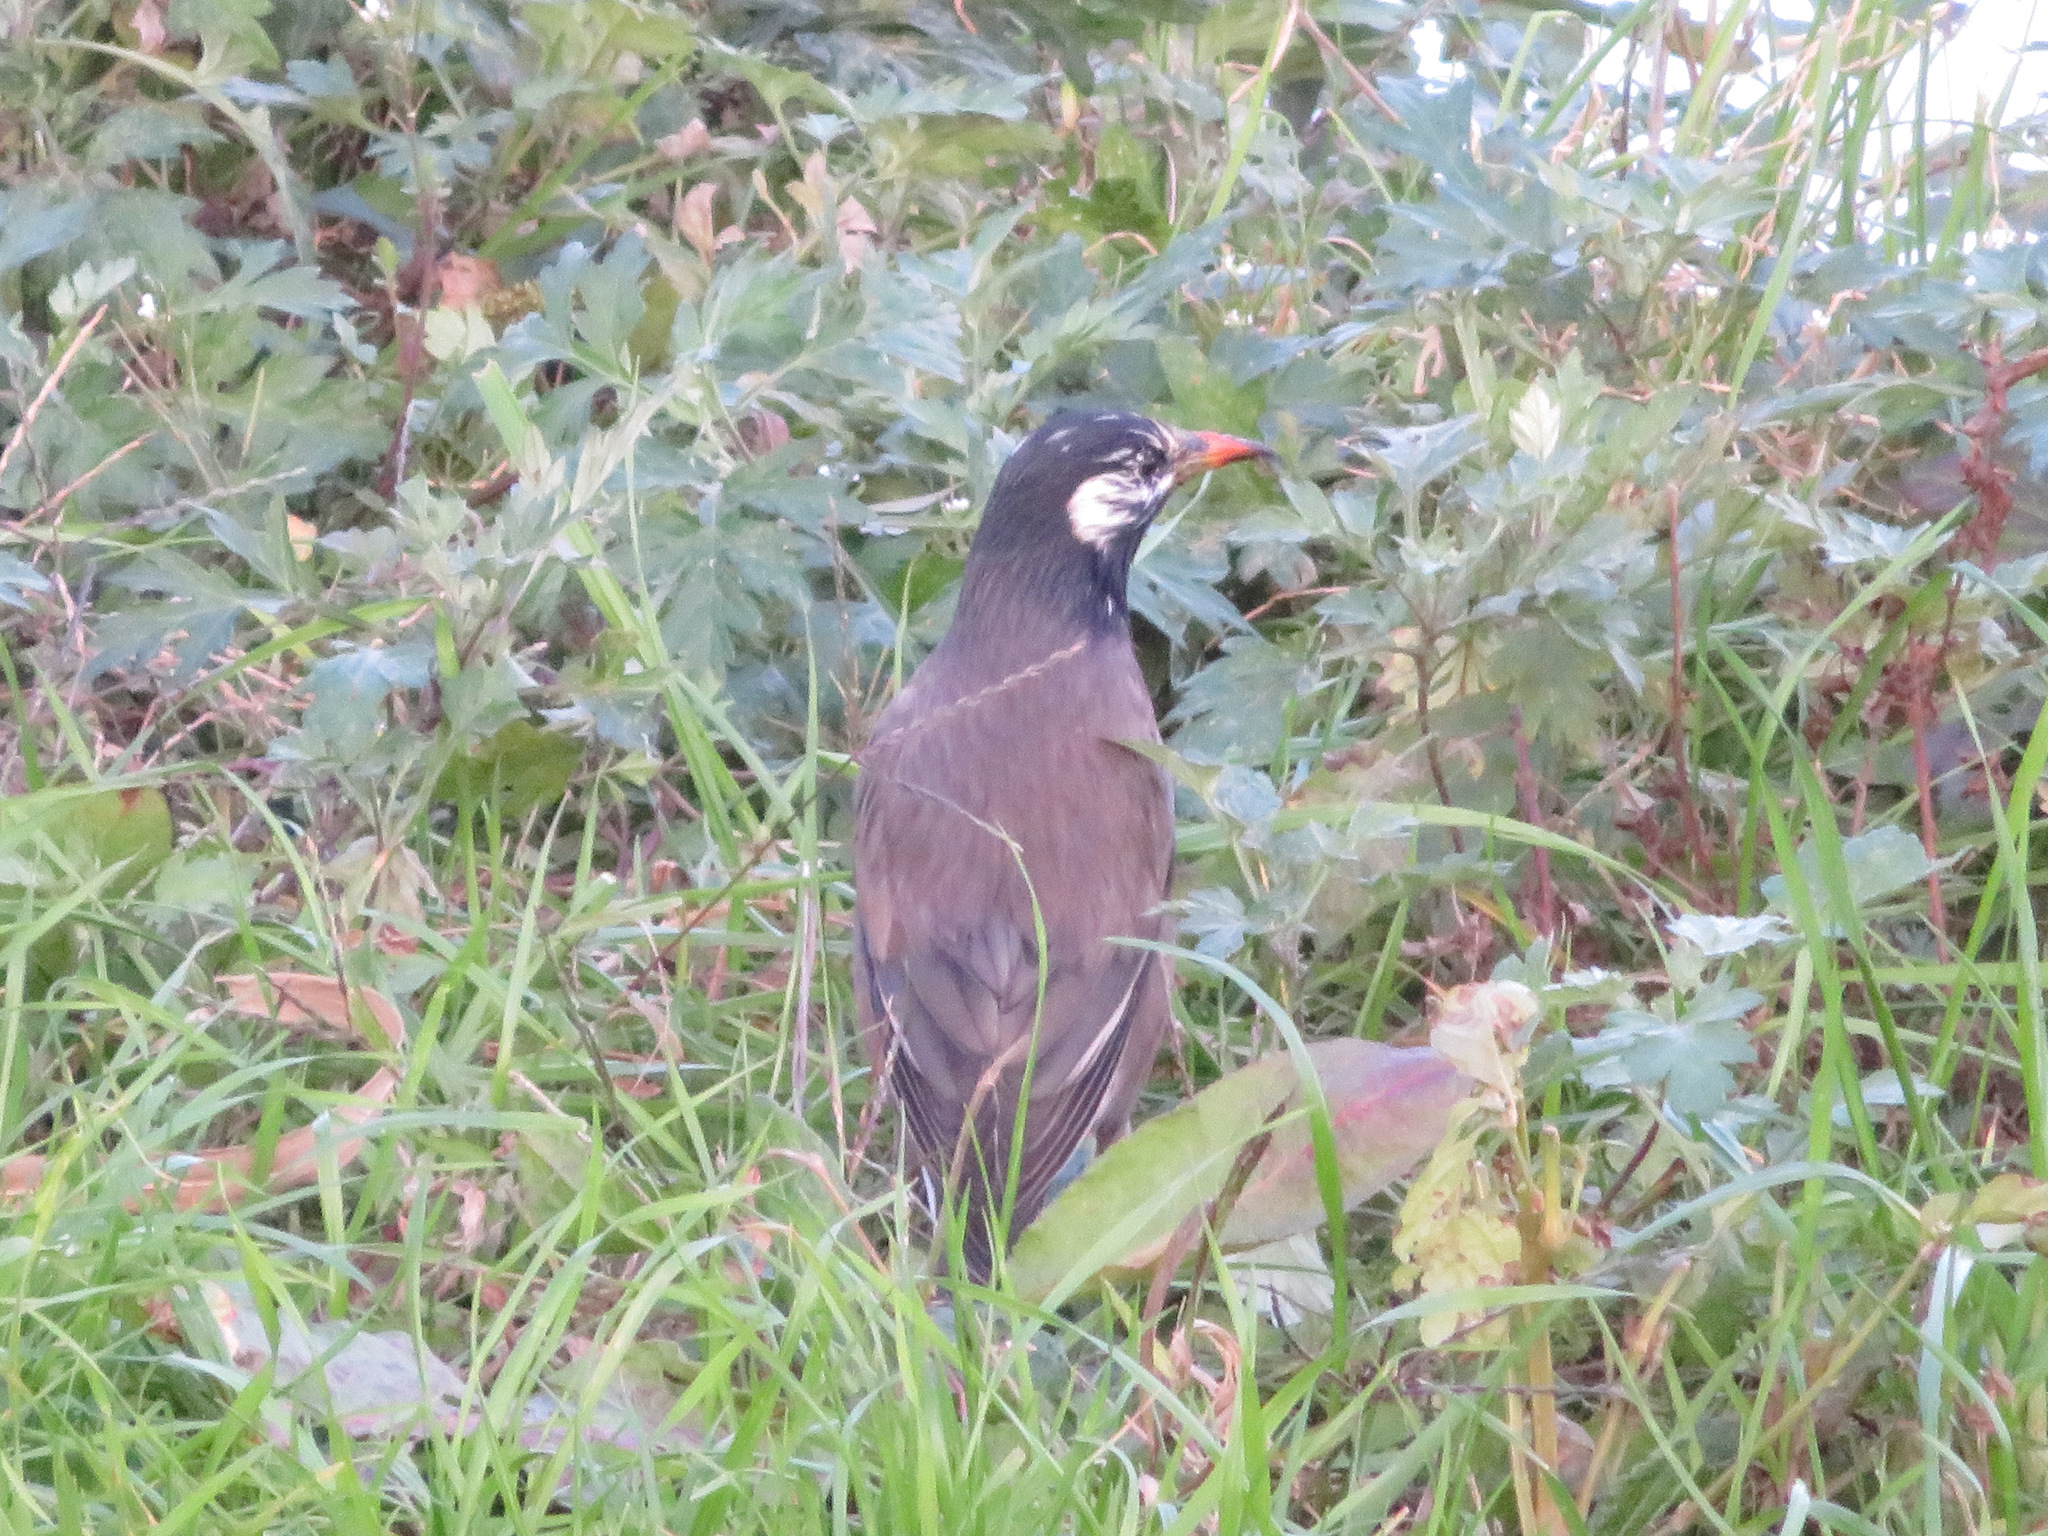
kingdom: Animalia
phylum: Chordata
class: Aves
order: Passeriformes
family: Sturnidae
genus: Spodiopsar
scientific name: Spodiopsar cineraceus
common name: White-cheeked starling
